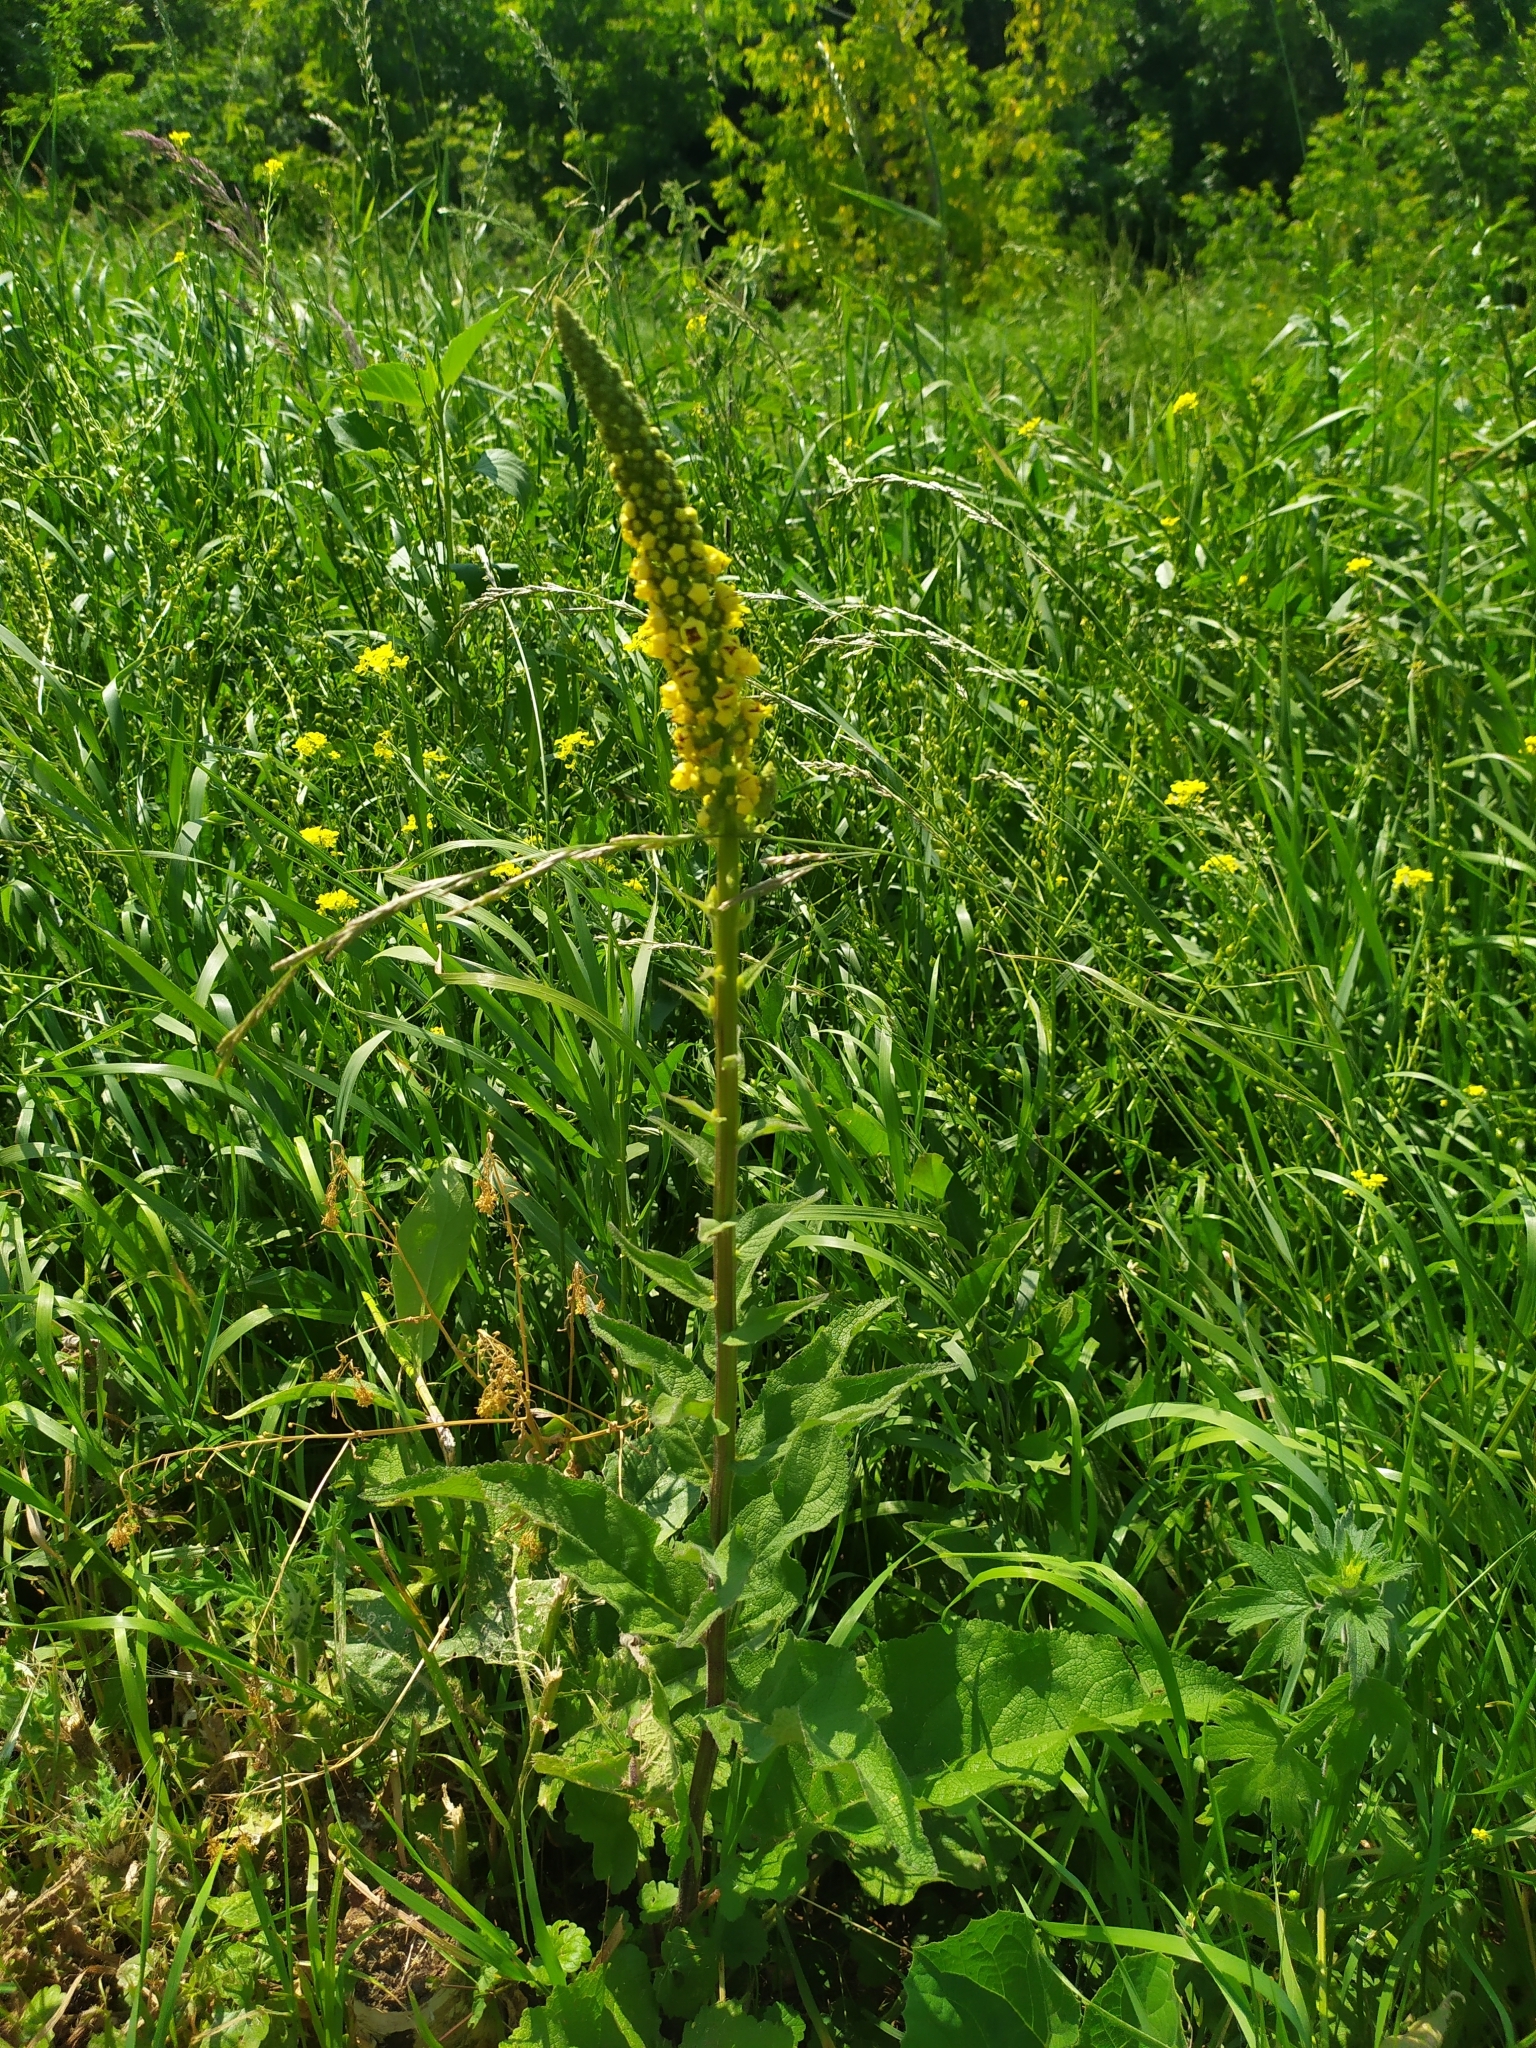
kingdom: Plantae
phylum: Tracheophyta
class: Magnoliopsida
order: Lamiales
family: Scrophulariaceae
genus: Verbascum
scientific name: Verbascum nigrum
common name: Dark mullein
